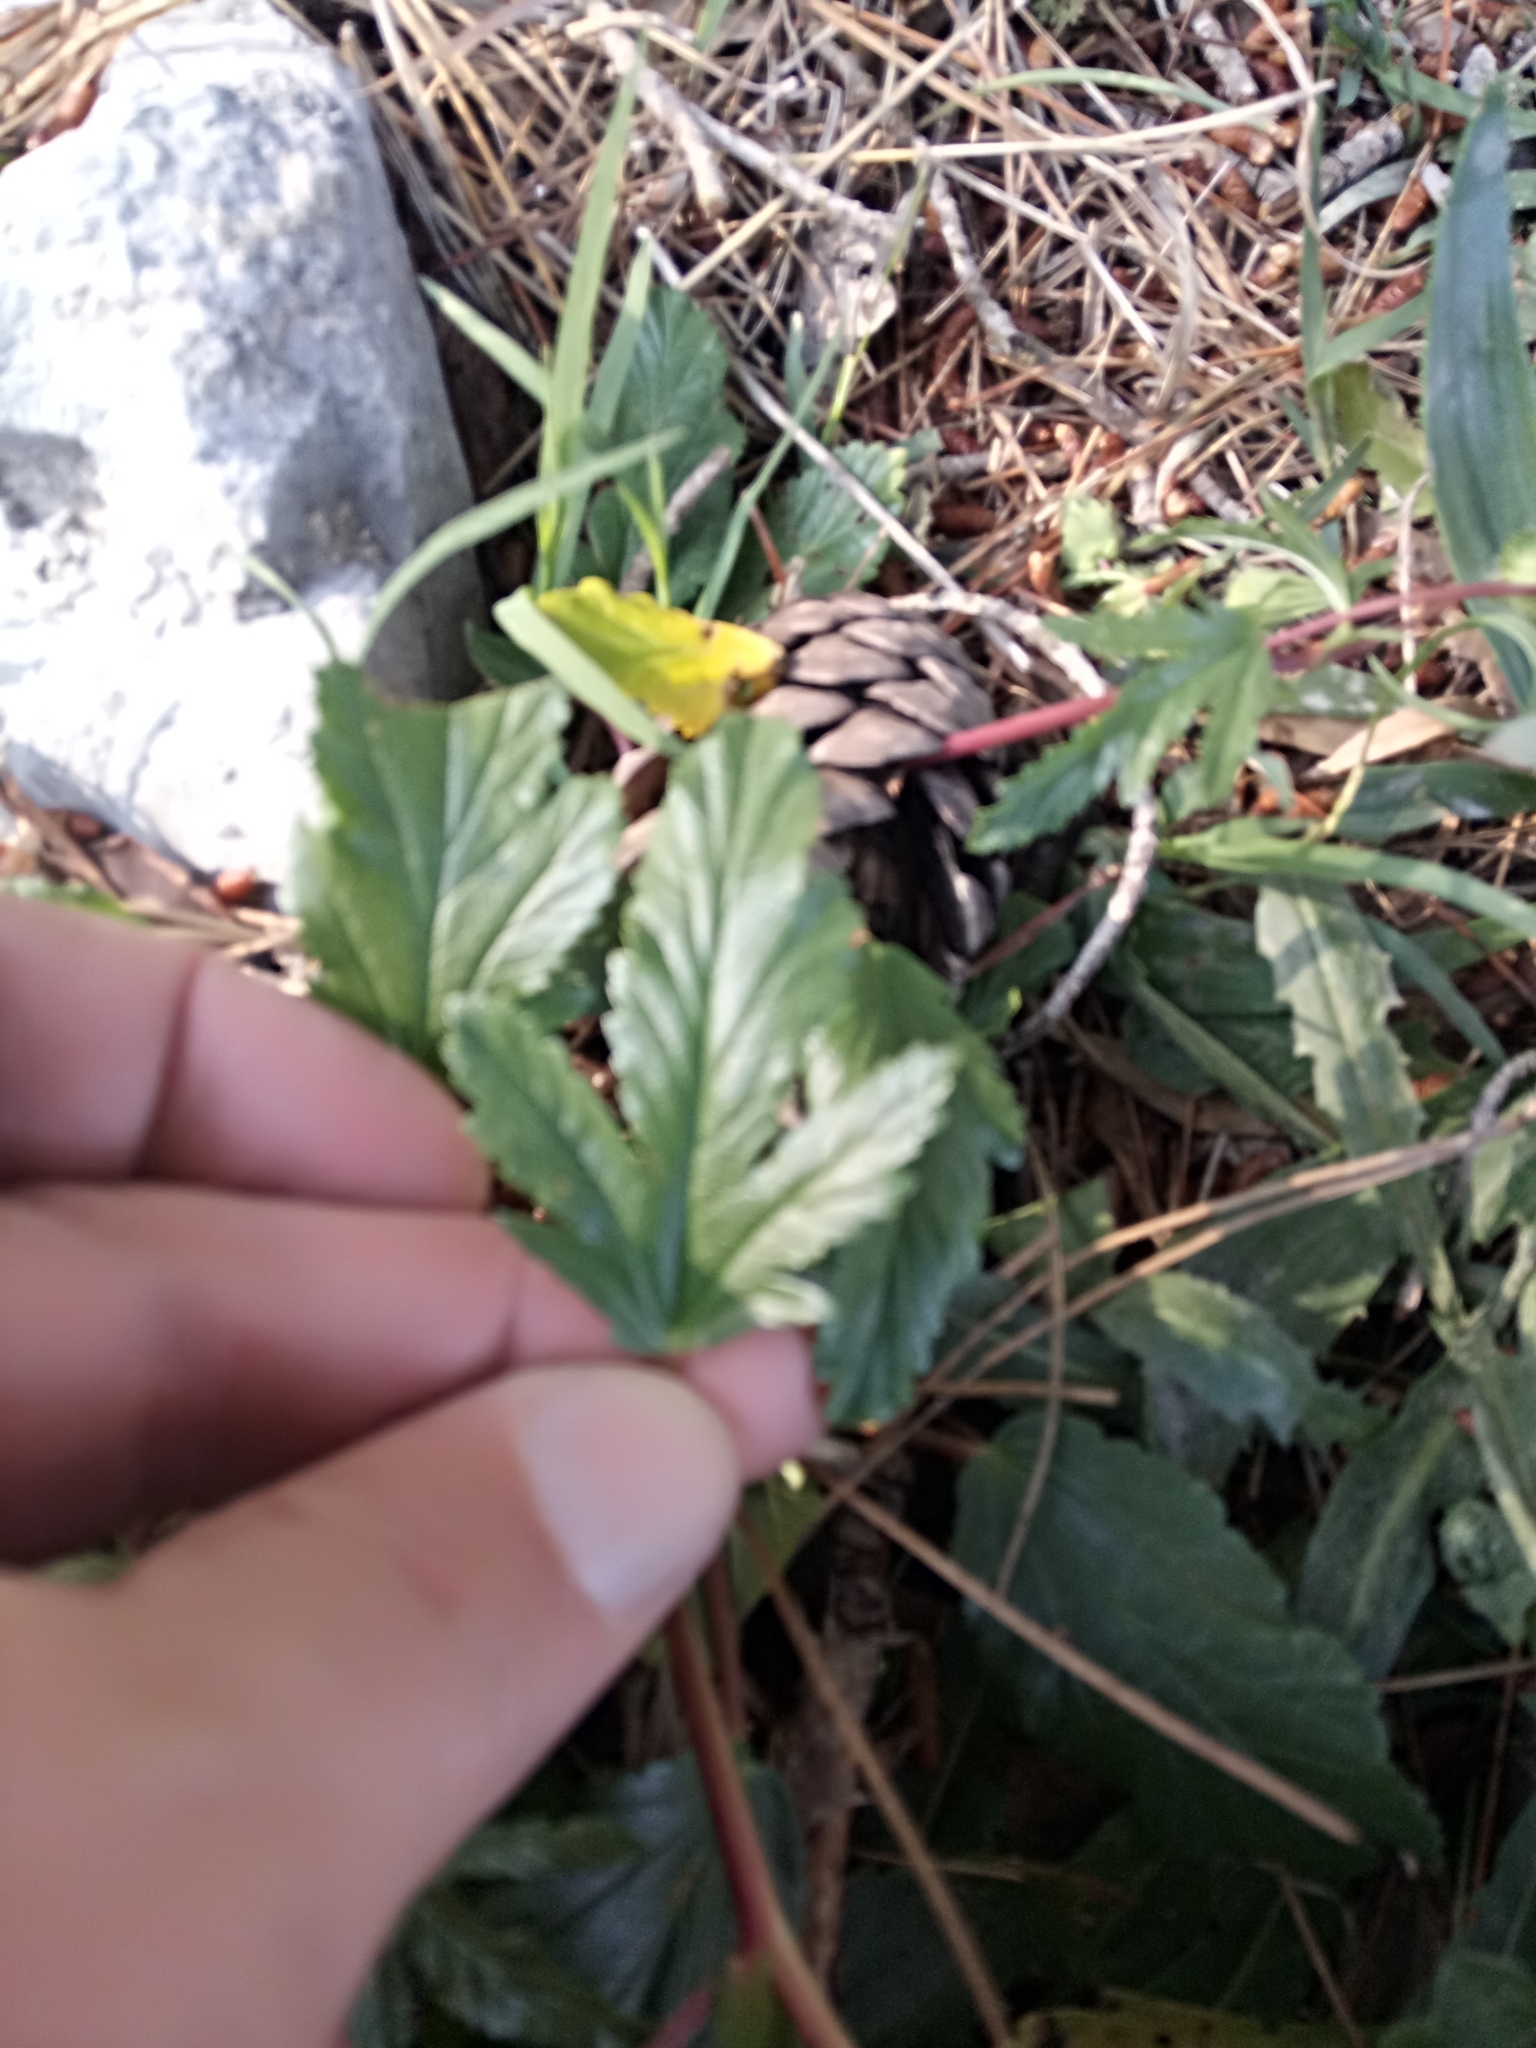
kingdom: Plantae
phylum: Tracheophyta
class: Magnoliopsida
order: Malvales
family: Malvaceae
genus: Malope
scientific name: Malope malacoides
